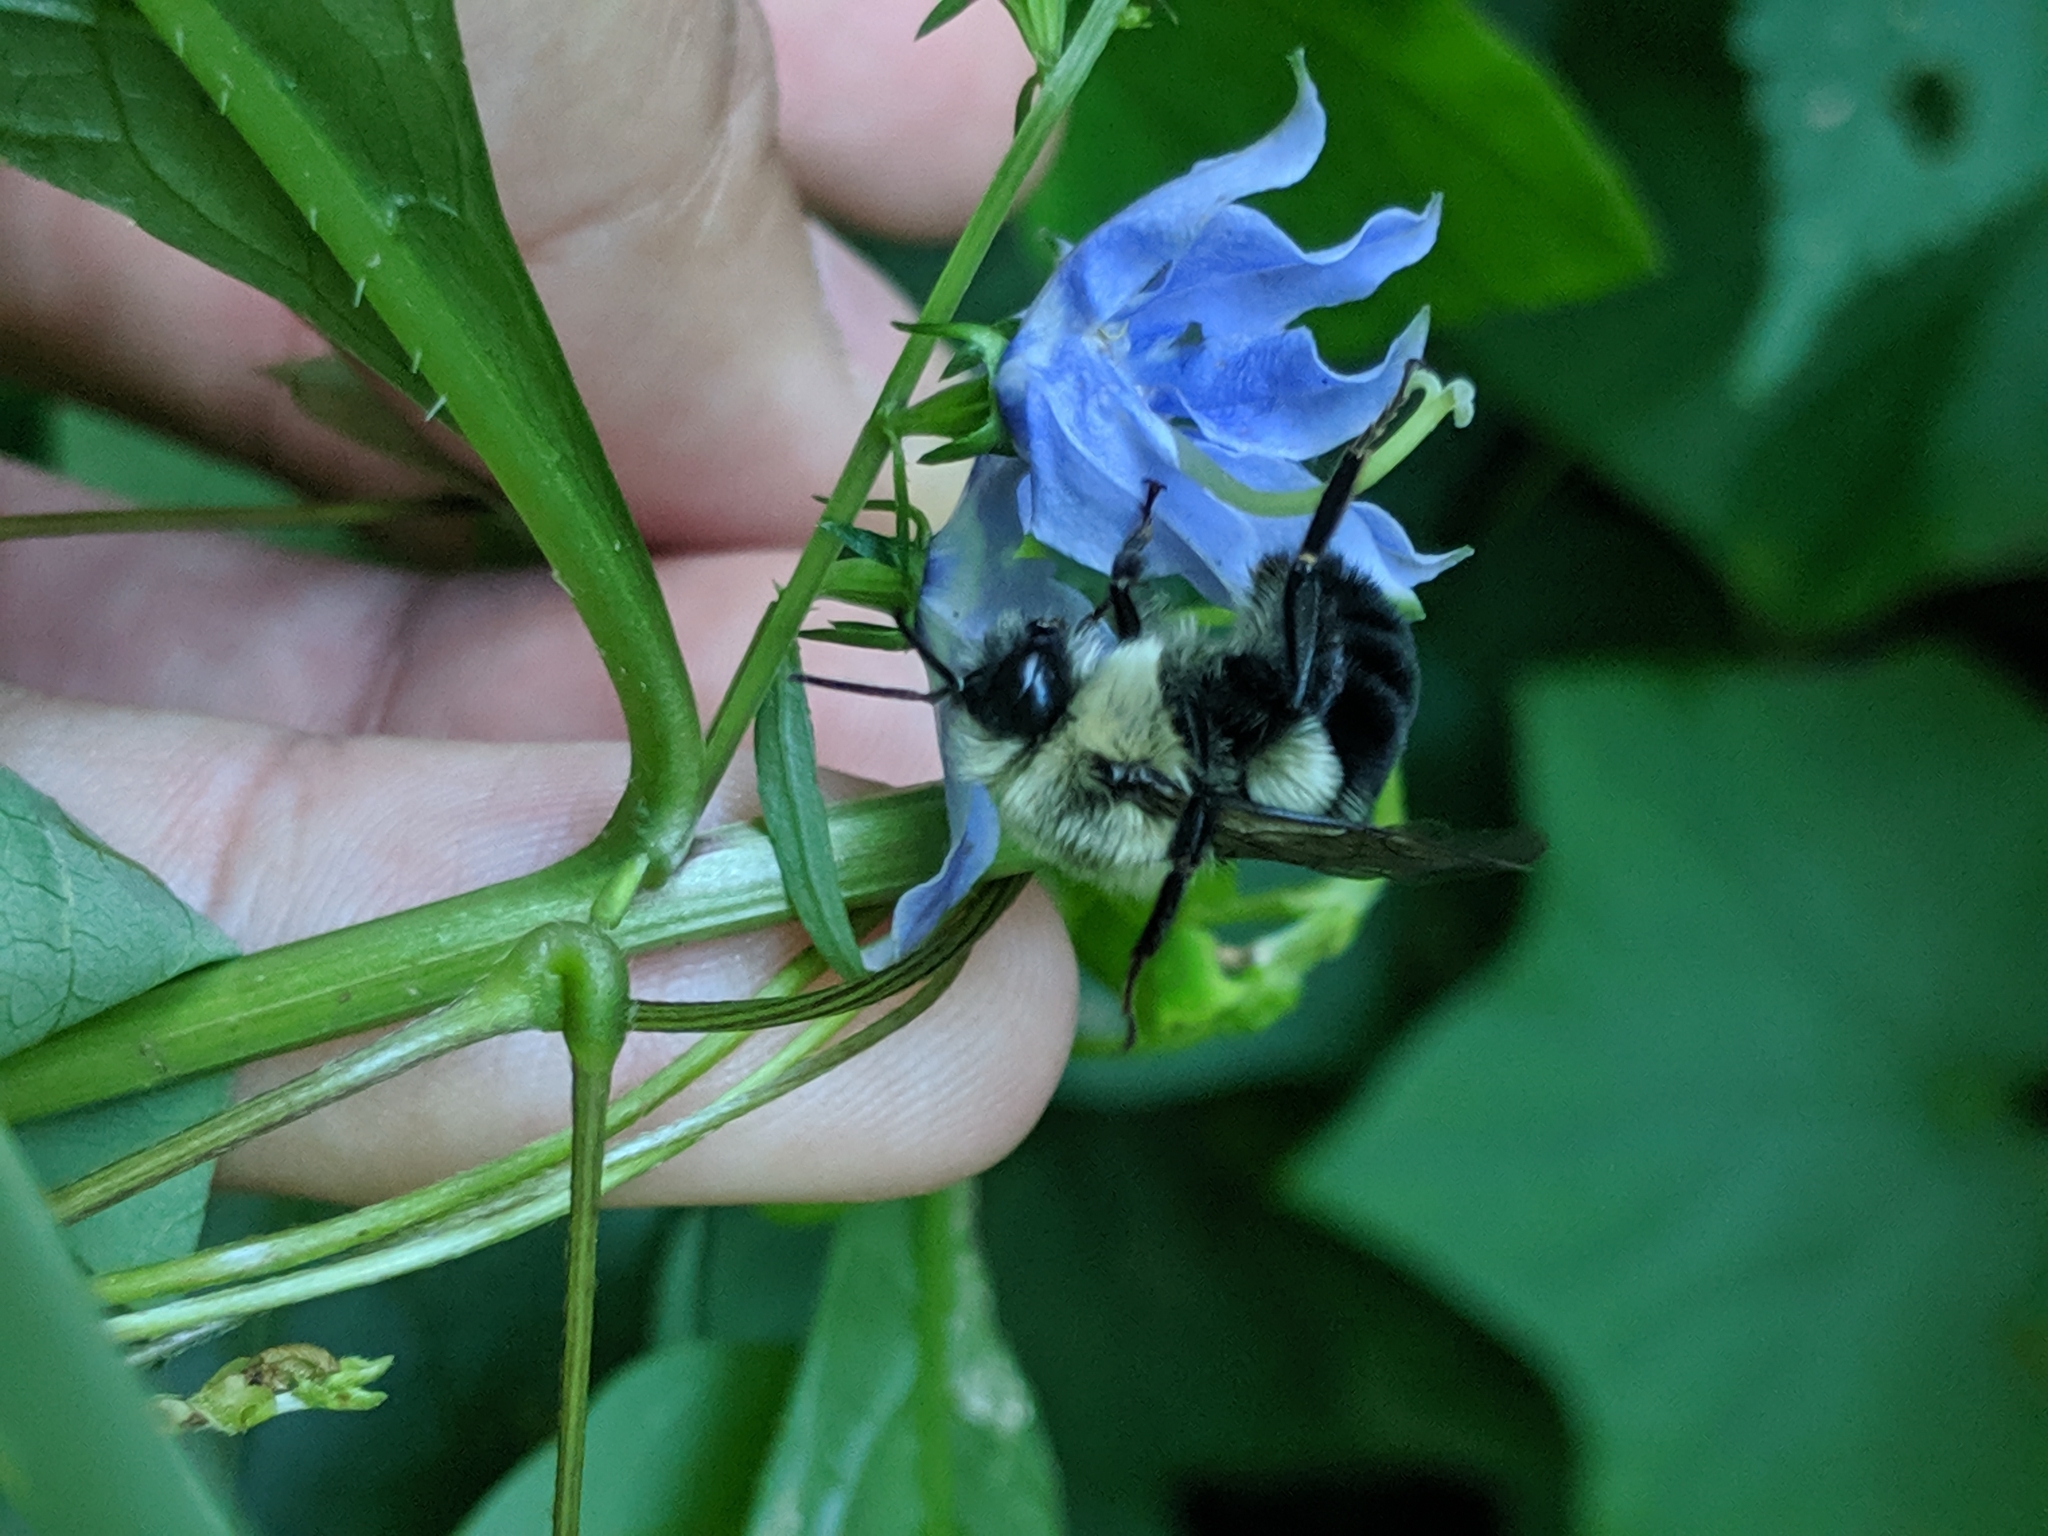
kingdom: Animalia
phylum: Arthropoda
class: Insecta
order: Hymenoptera
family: Apidae
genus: Bombus
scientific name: Bombus impatiens
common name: Common eastern bumble bee
